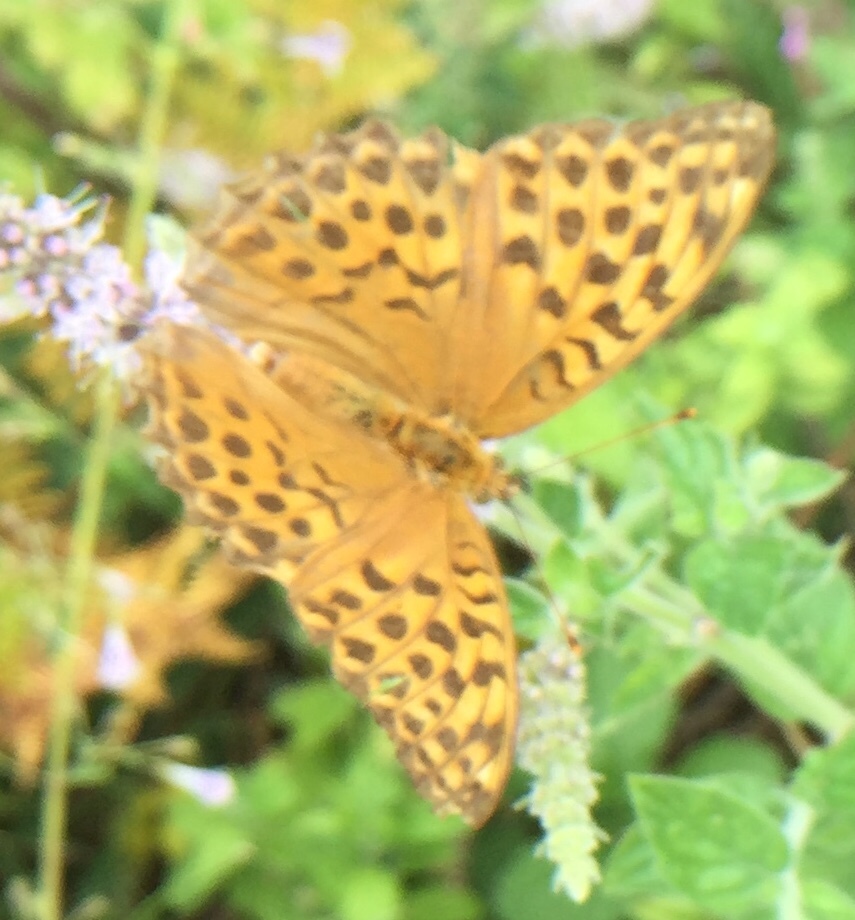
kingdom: Animalia
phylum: Arthropoda
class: Insecta
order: Lepidoptera
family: Nymphalidae
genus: Argynnis
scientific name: Argynnis paphia
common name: Silver-washed fritillary
